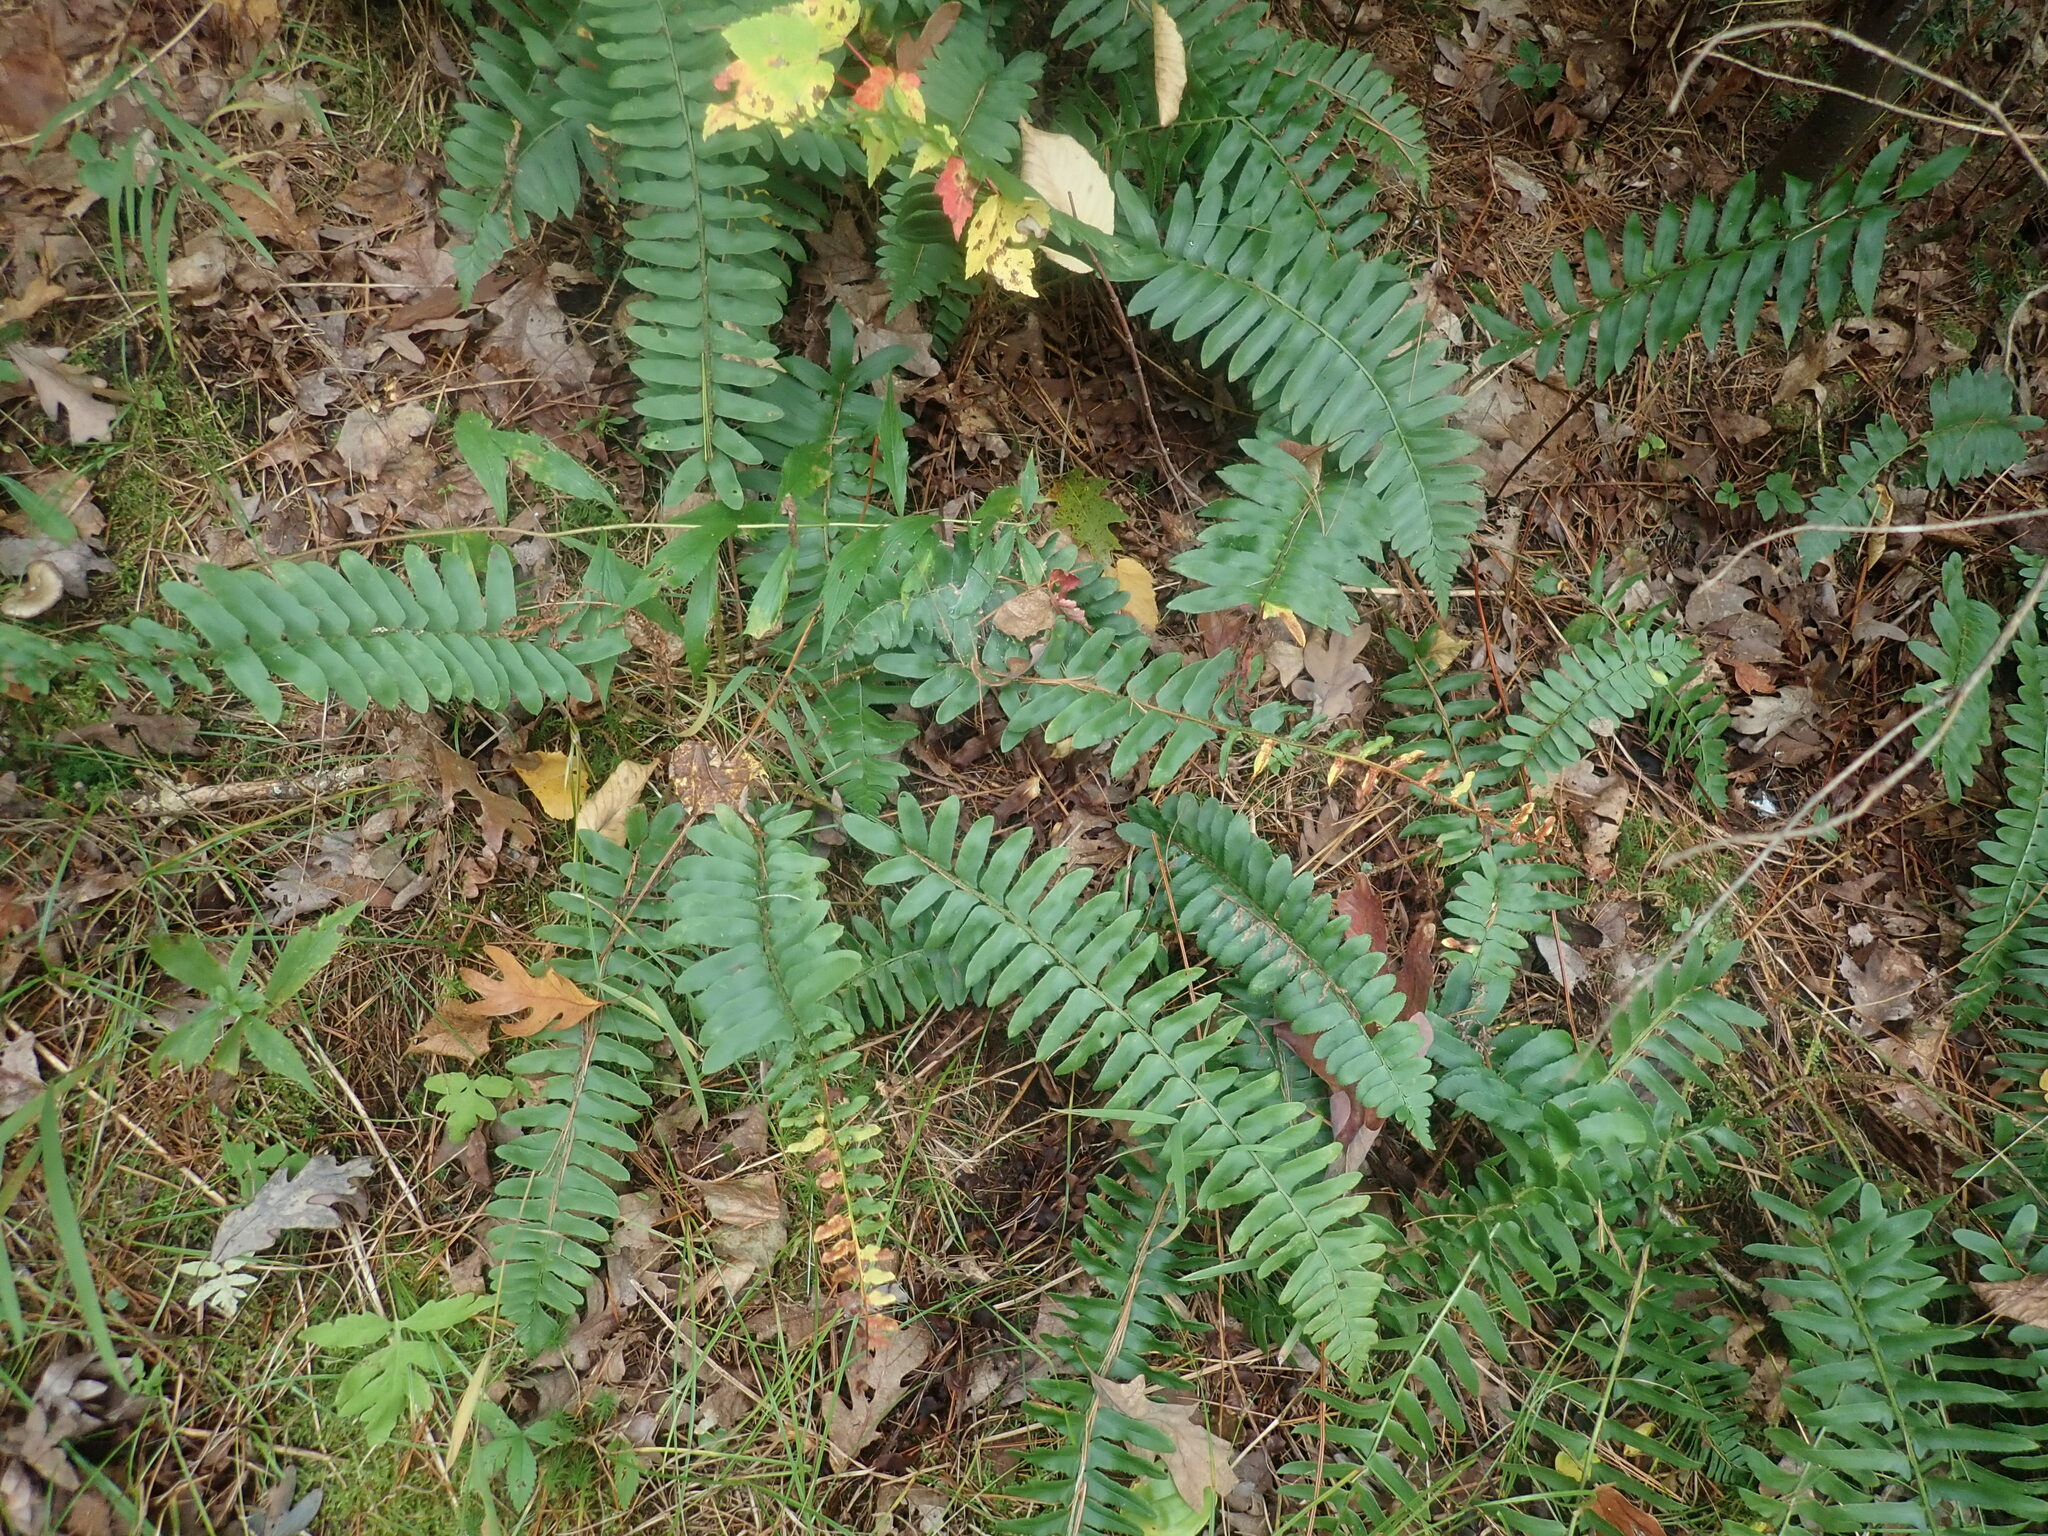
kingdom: Plantae
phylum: Tracheophyta
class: Polypodiopsida
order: Polypodiales
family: Dryopteridaceae
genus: Polystichum
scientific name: Polystichum acrostichoides
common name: Christmas fern
